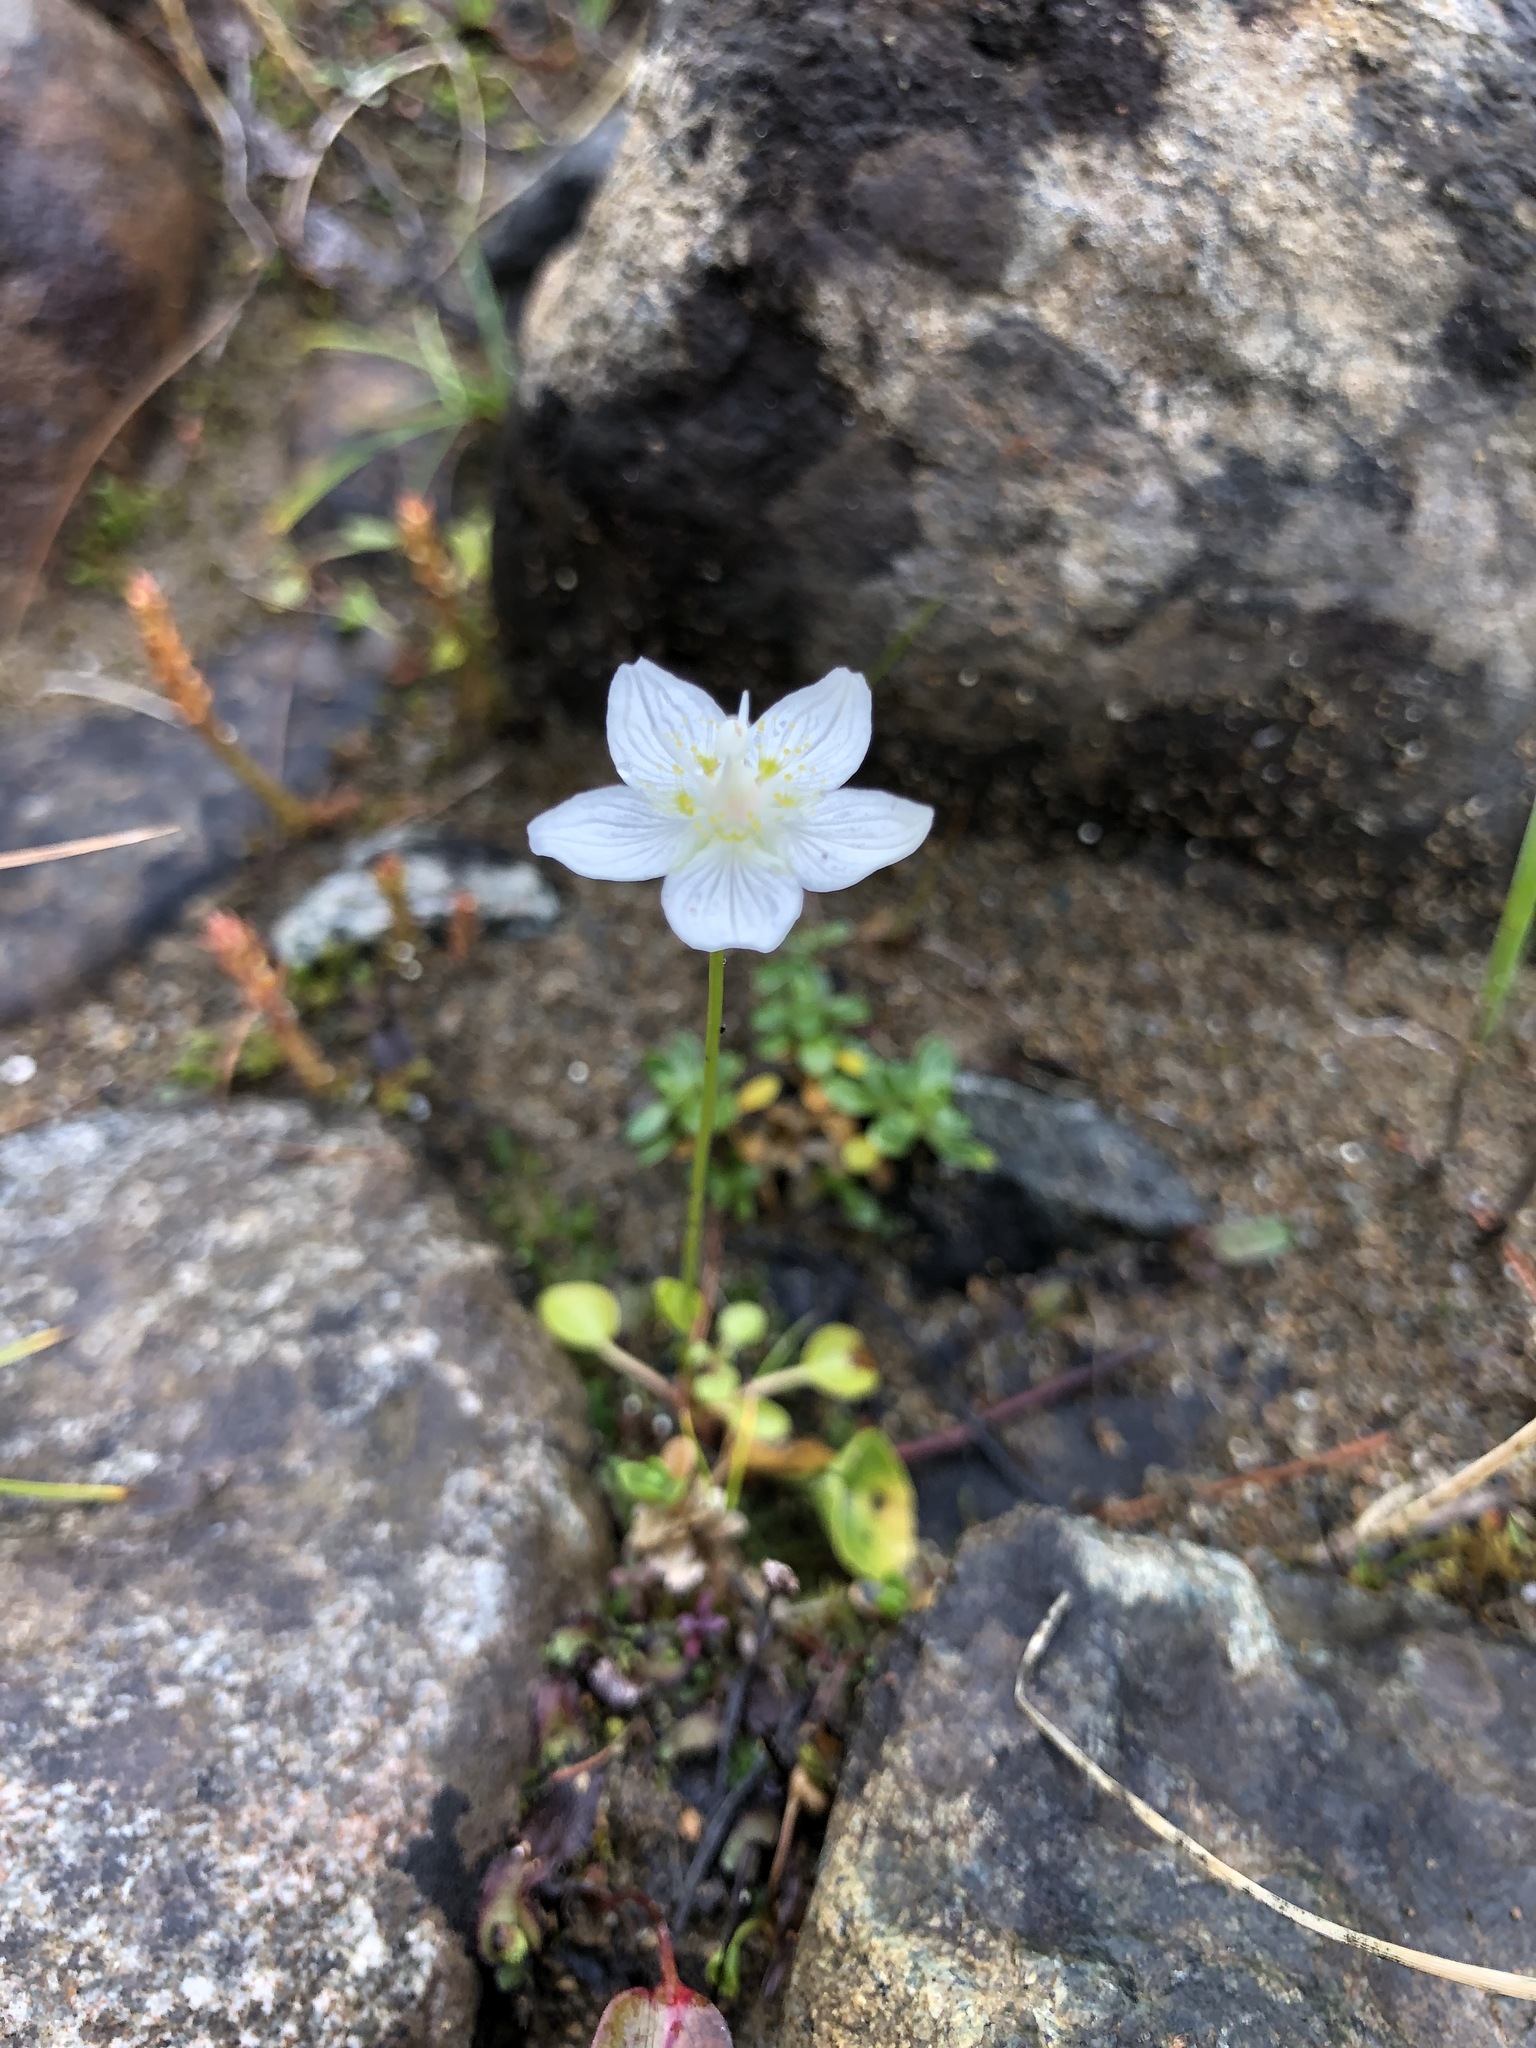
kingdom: Plantae
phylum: Tracheophyta
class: Magnoliopsida
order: Celastrales
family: Parnassiaceae
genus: Parnassia
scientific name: Parnassia palustris
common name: Grass-of-parnassus
